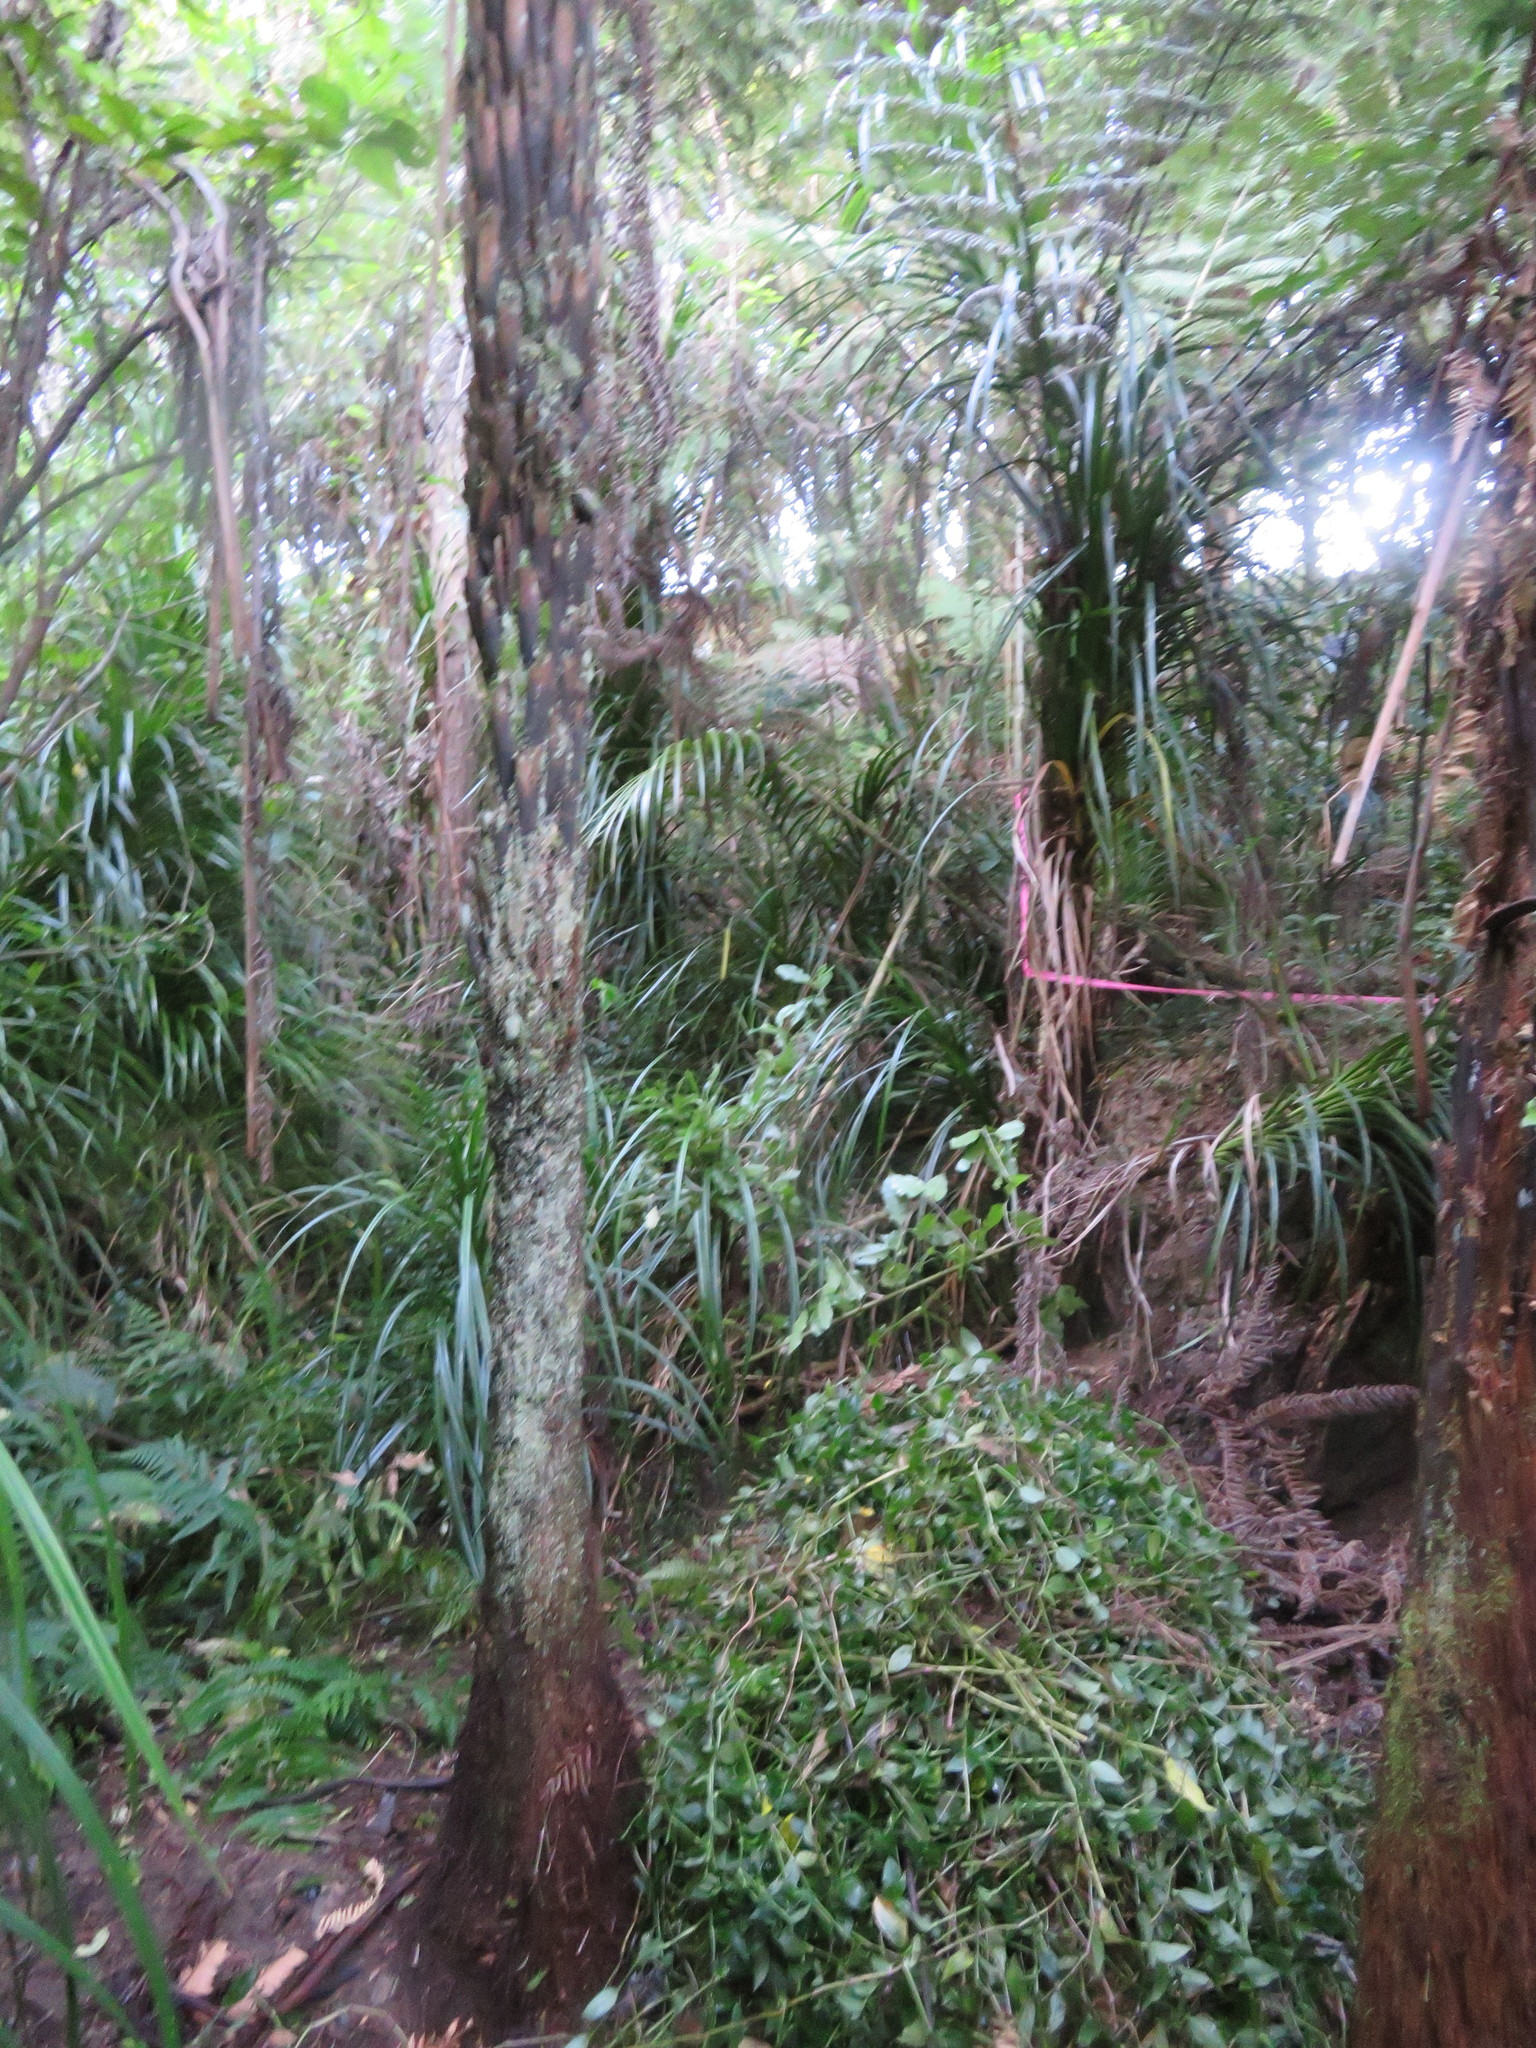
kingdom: Plantae
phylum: Tracheophyta
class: Liliopsida
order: Commelinales
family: Commelinaceae
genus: Tradescantia
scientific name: Tradescantia fluminensis
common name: Wandering-jew
